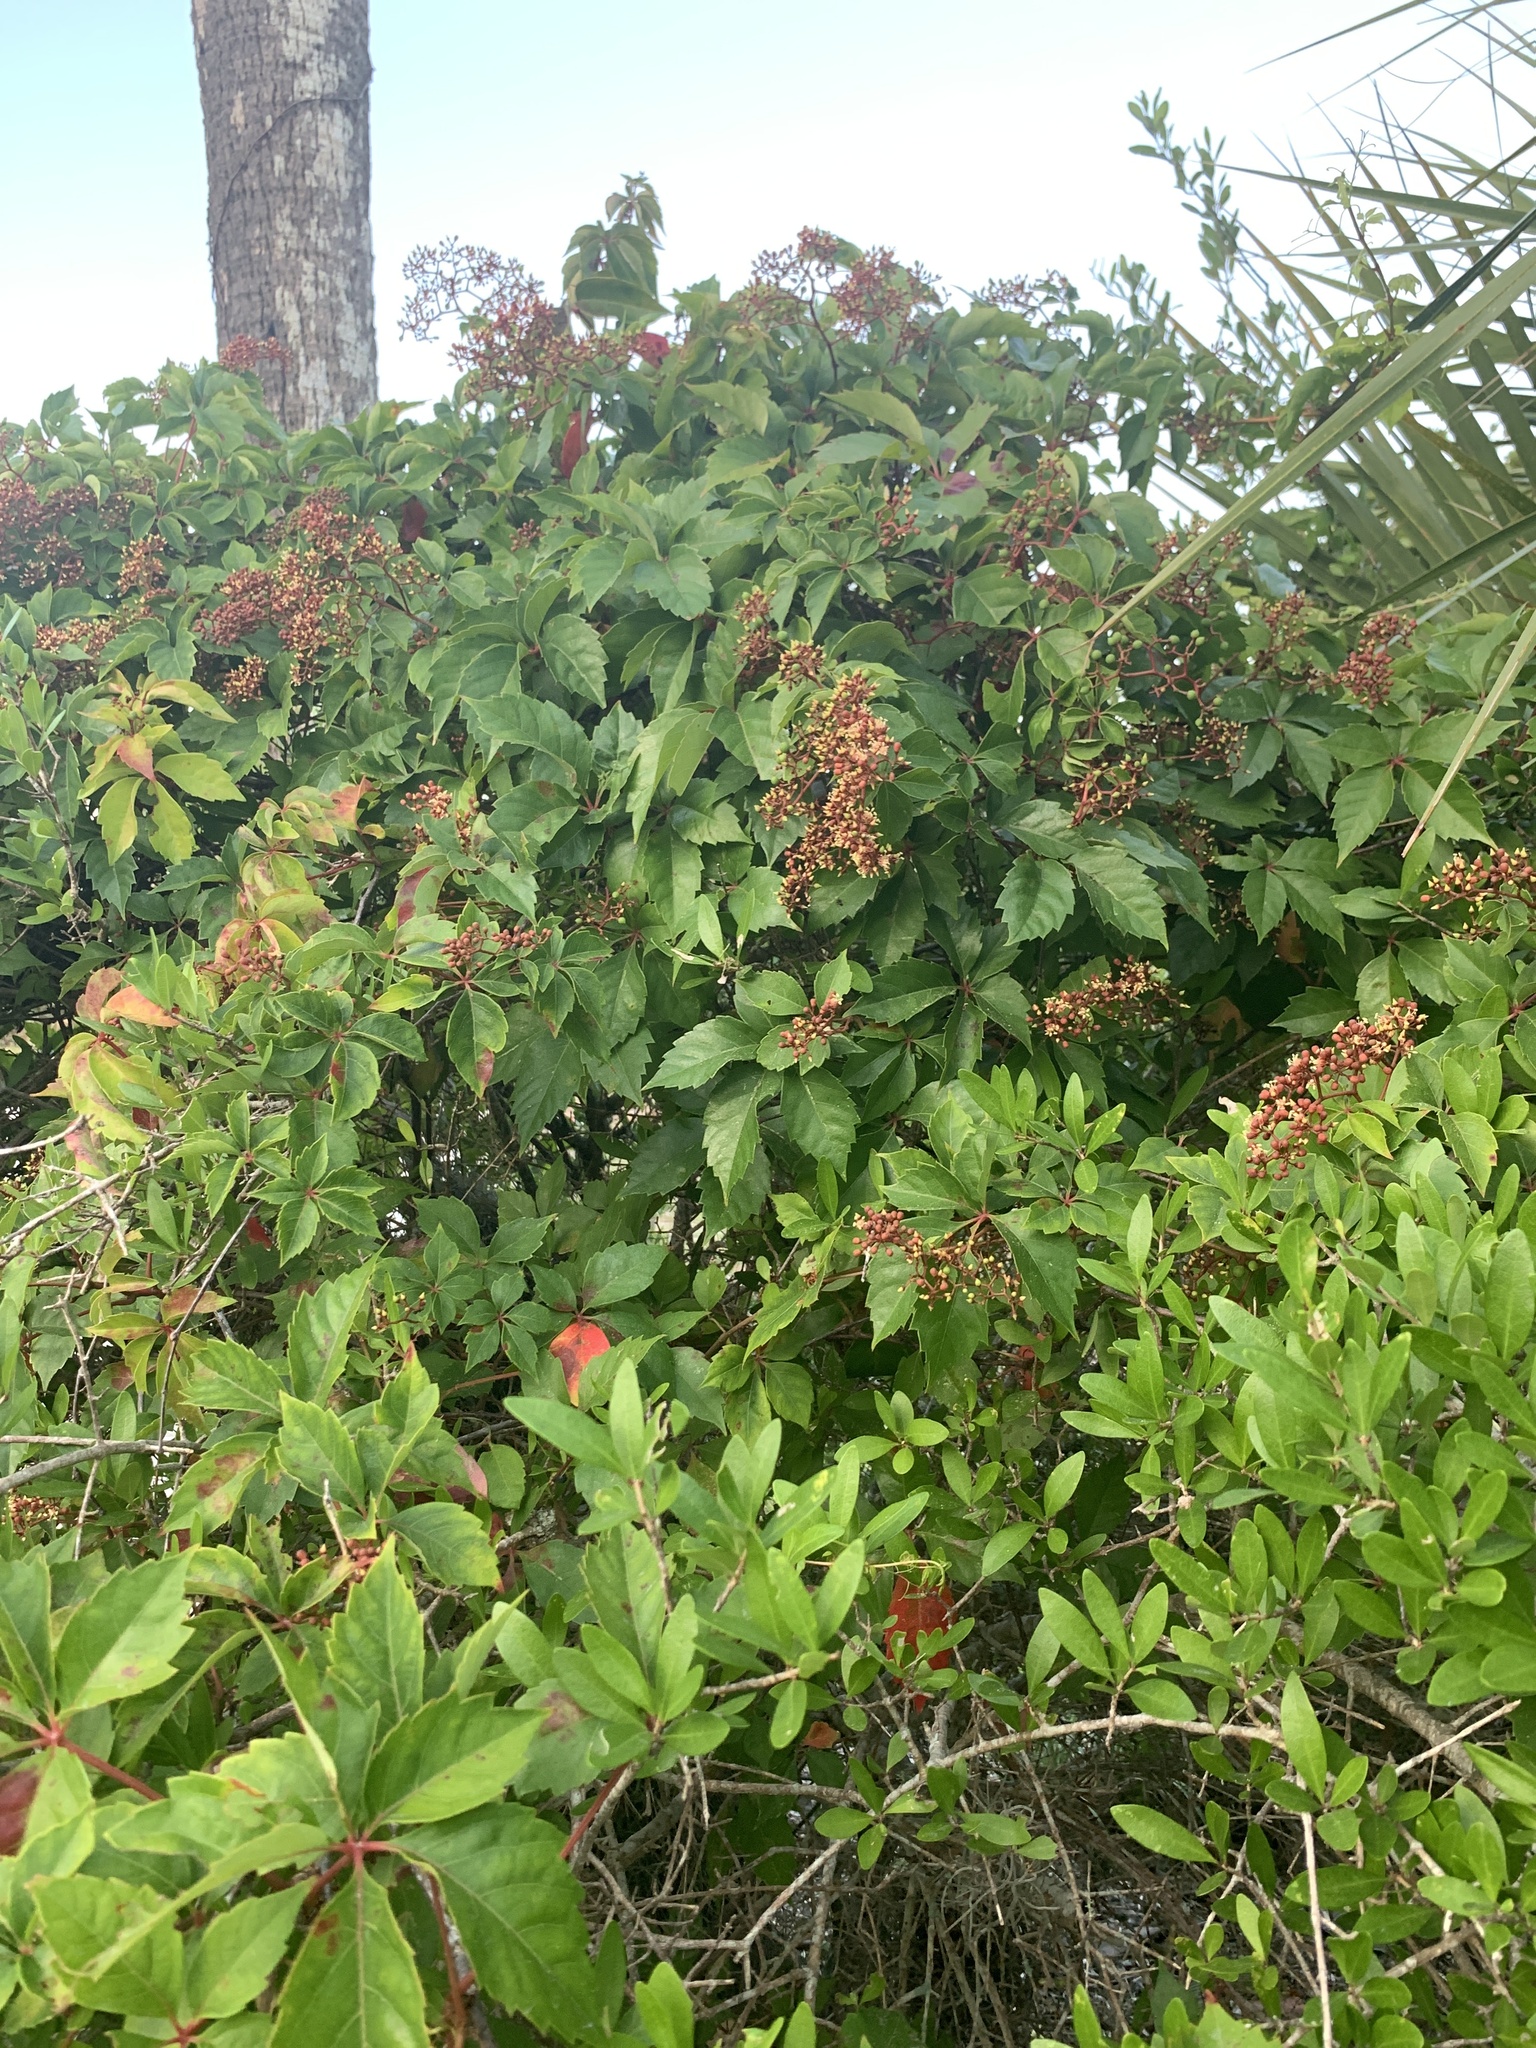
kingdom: Plantae
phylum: Tracheophyta
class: Magnoliopsida
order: Vitales
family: Vitaceae
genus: Parthenocissus
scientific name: Parthenocissus quinquefolia
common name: Virginia-creeper
